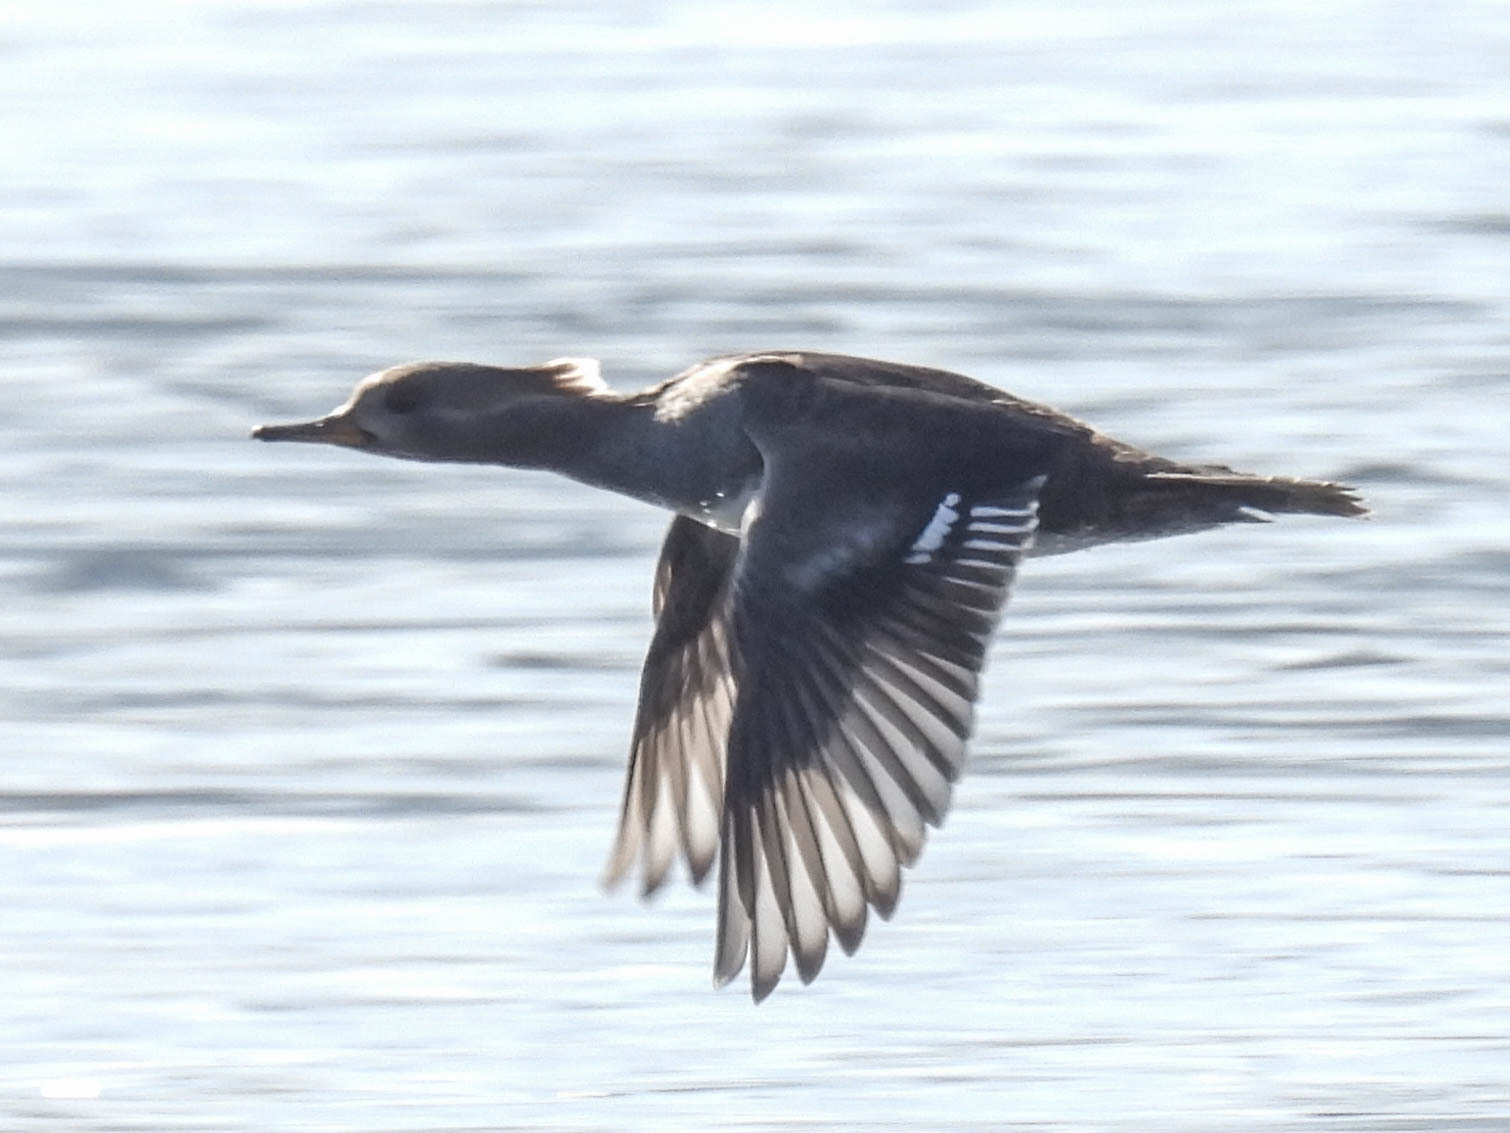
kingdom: Animalia
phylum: Chordata
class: Aves
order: Anseriformes
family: Anatidae
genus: Lophodytes
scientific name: Lophodytes cucullatus
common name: Hooded merganser
